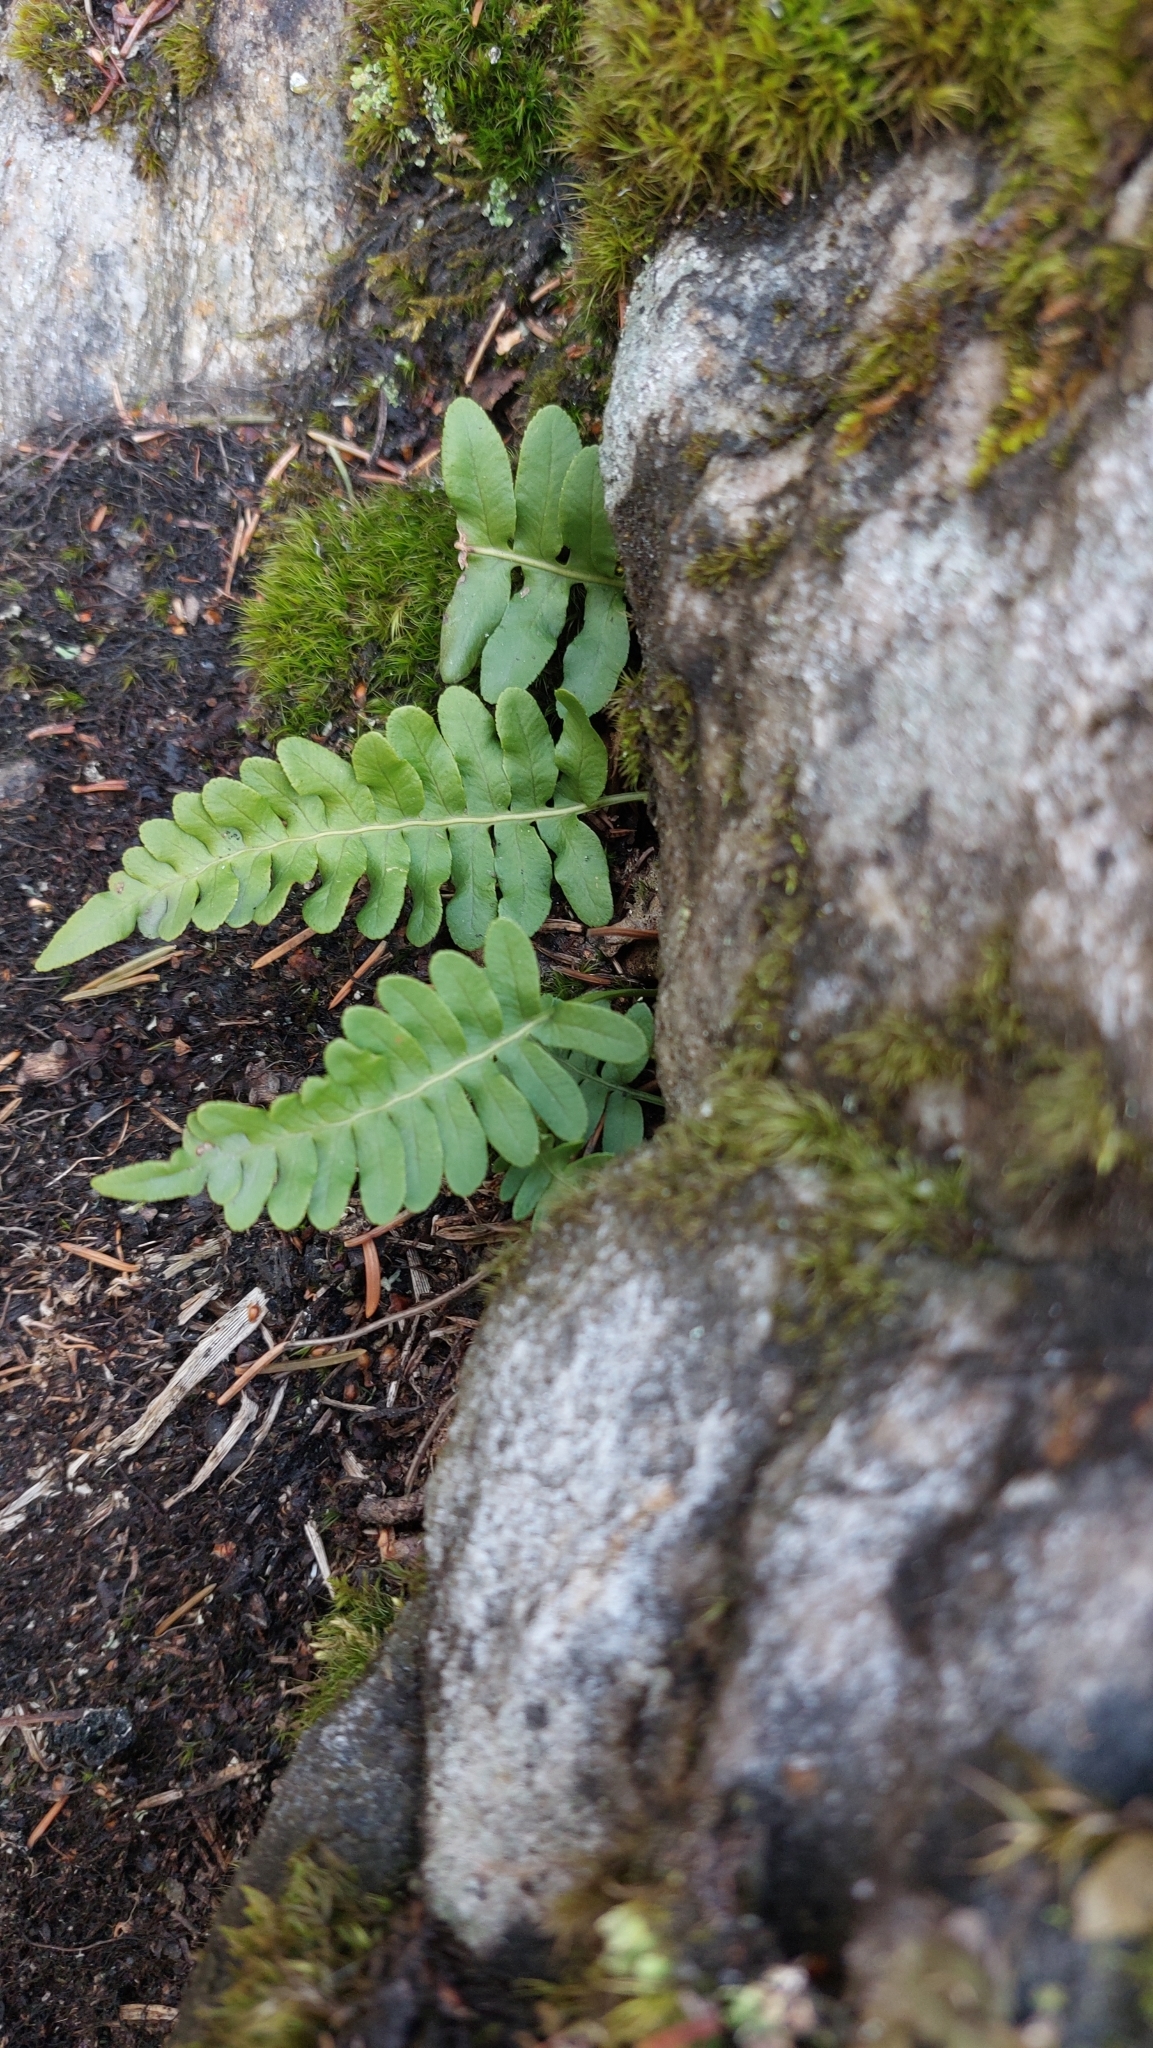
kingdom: Plantae
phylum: Tracheophyta
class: Polypodiopsida
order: Polypodiales
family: Polypodiaceae
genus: Polypodium
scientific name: Polypodium vulgare
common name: Common polypody
